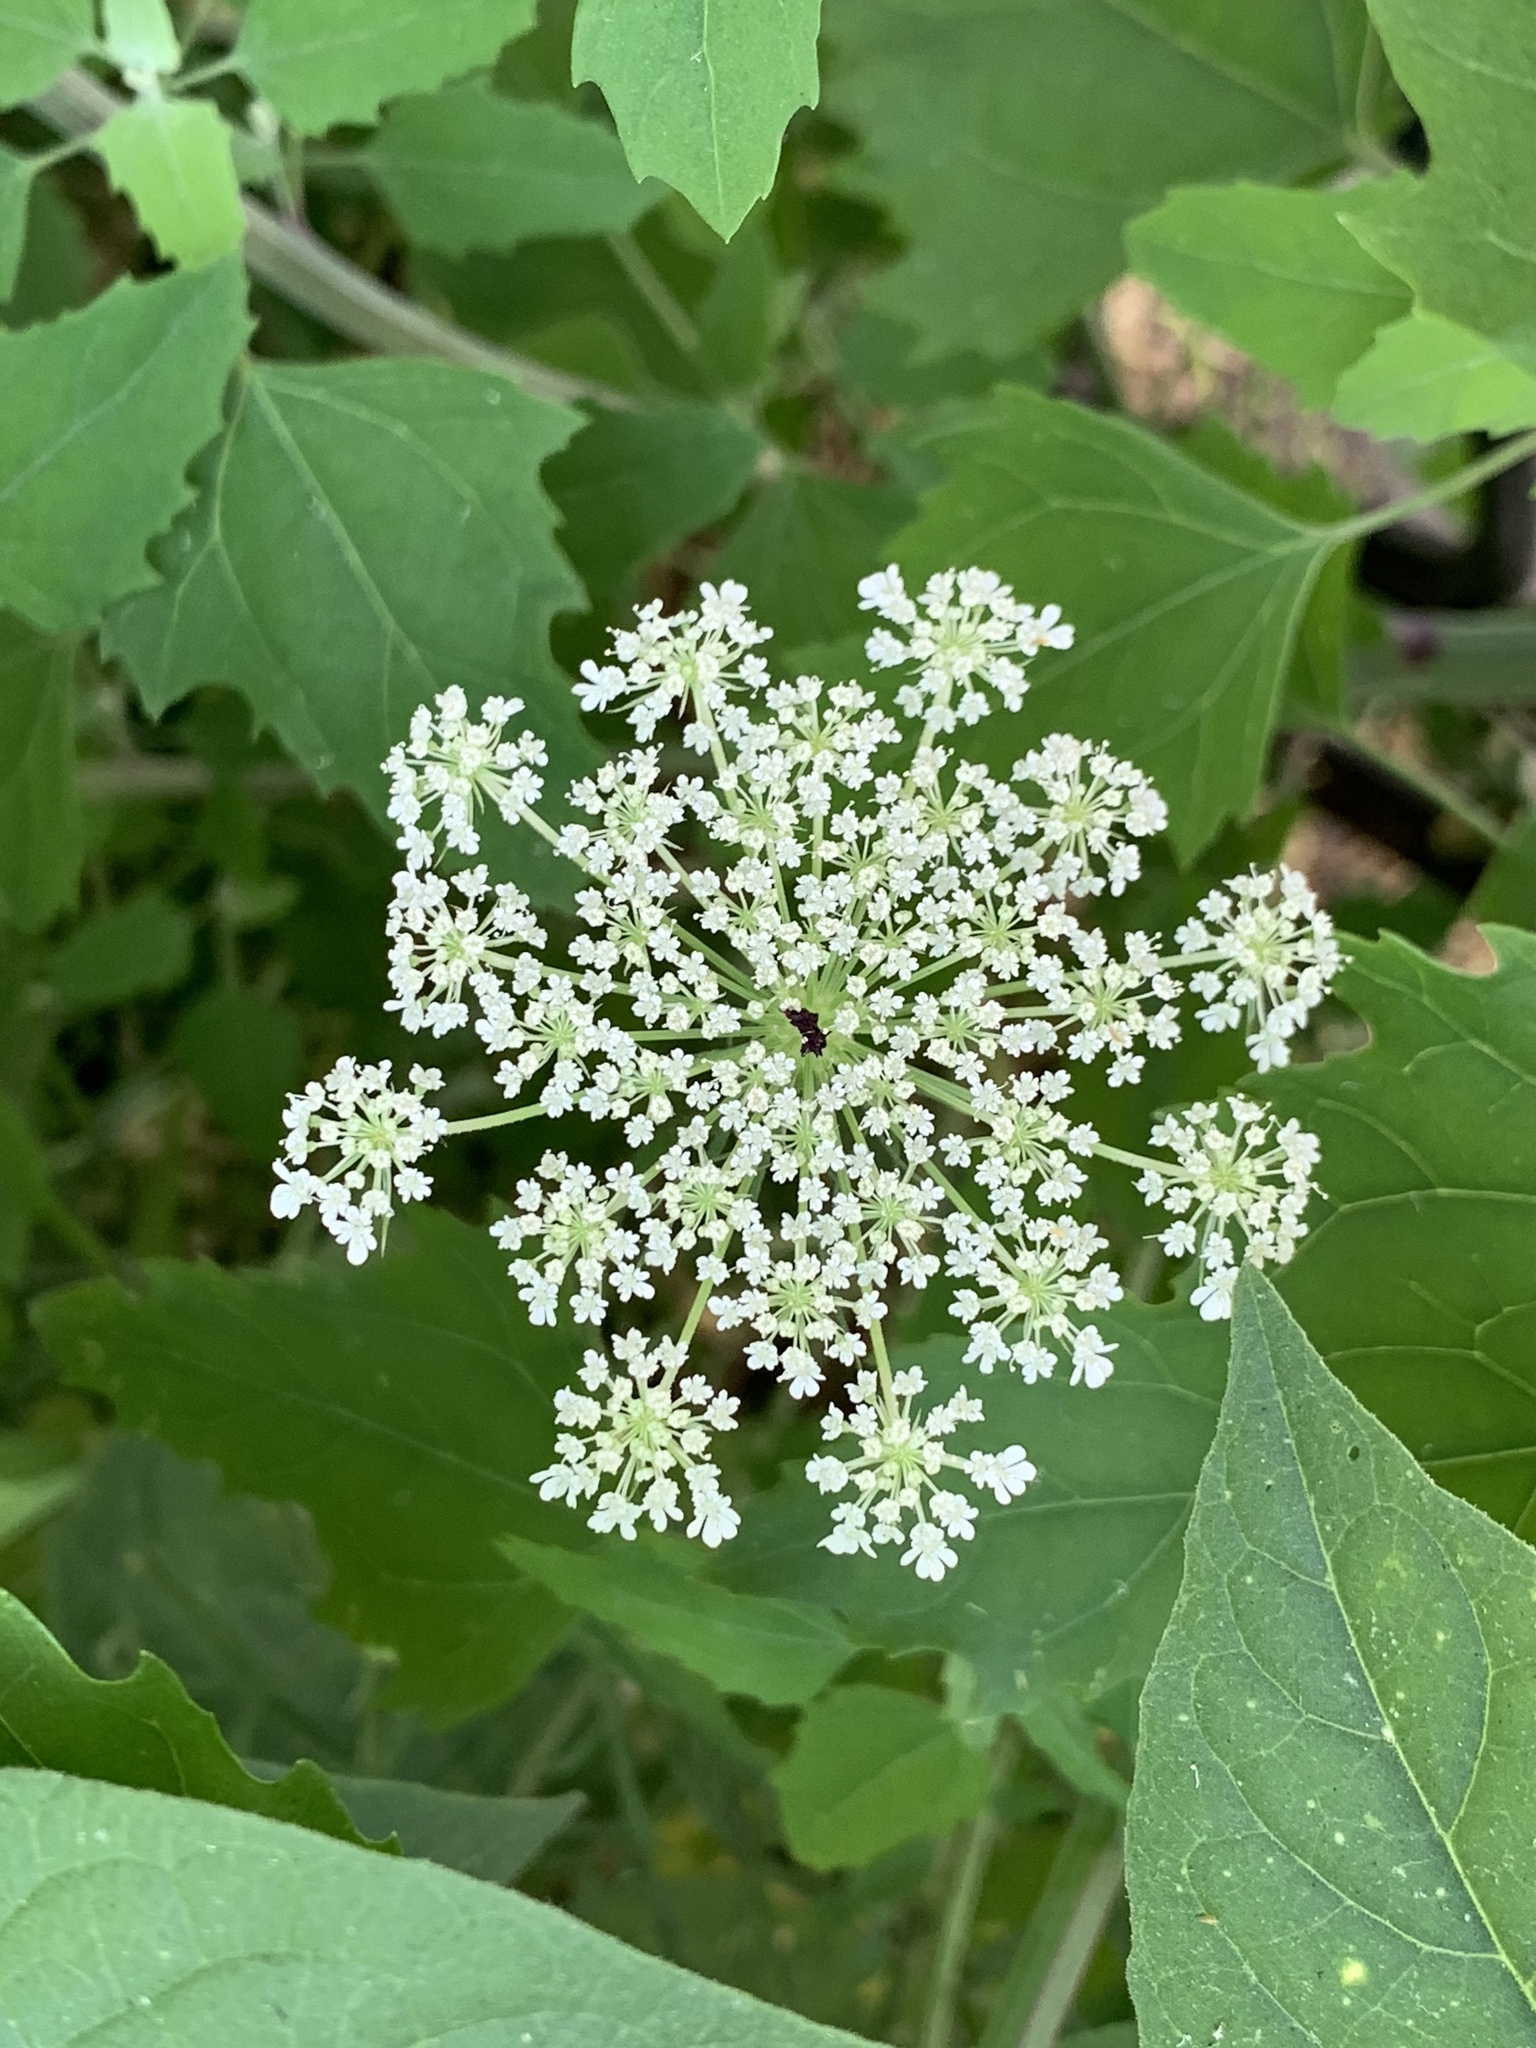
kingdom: Plantae
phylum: Tracheophyta
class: Magnoliopsida
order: Apiales
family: Apiaceae
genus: Daucus
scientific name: Daucus carota
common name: Wild carrot
